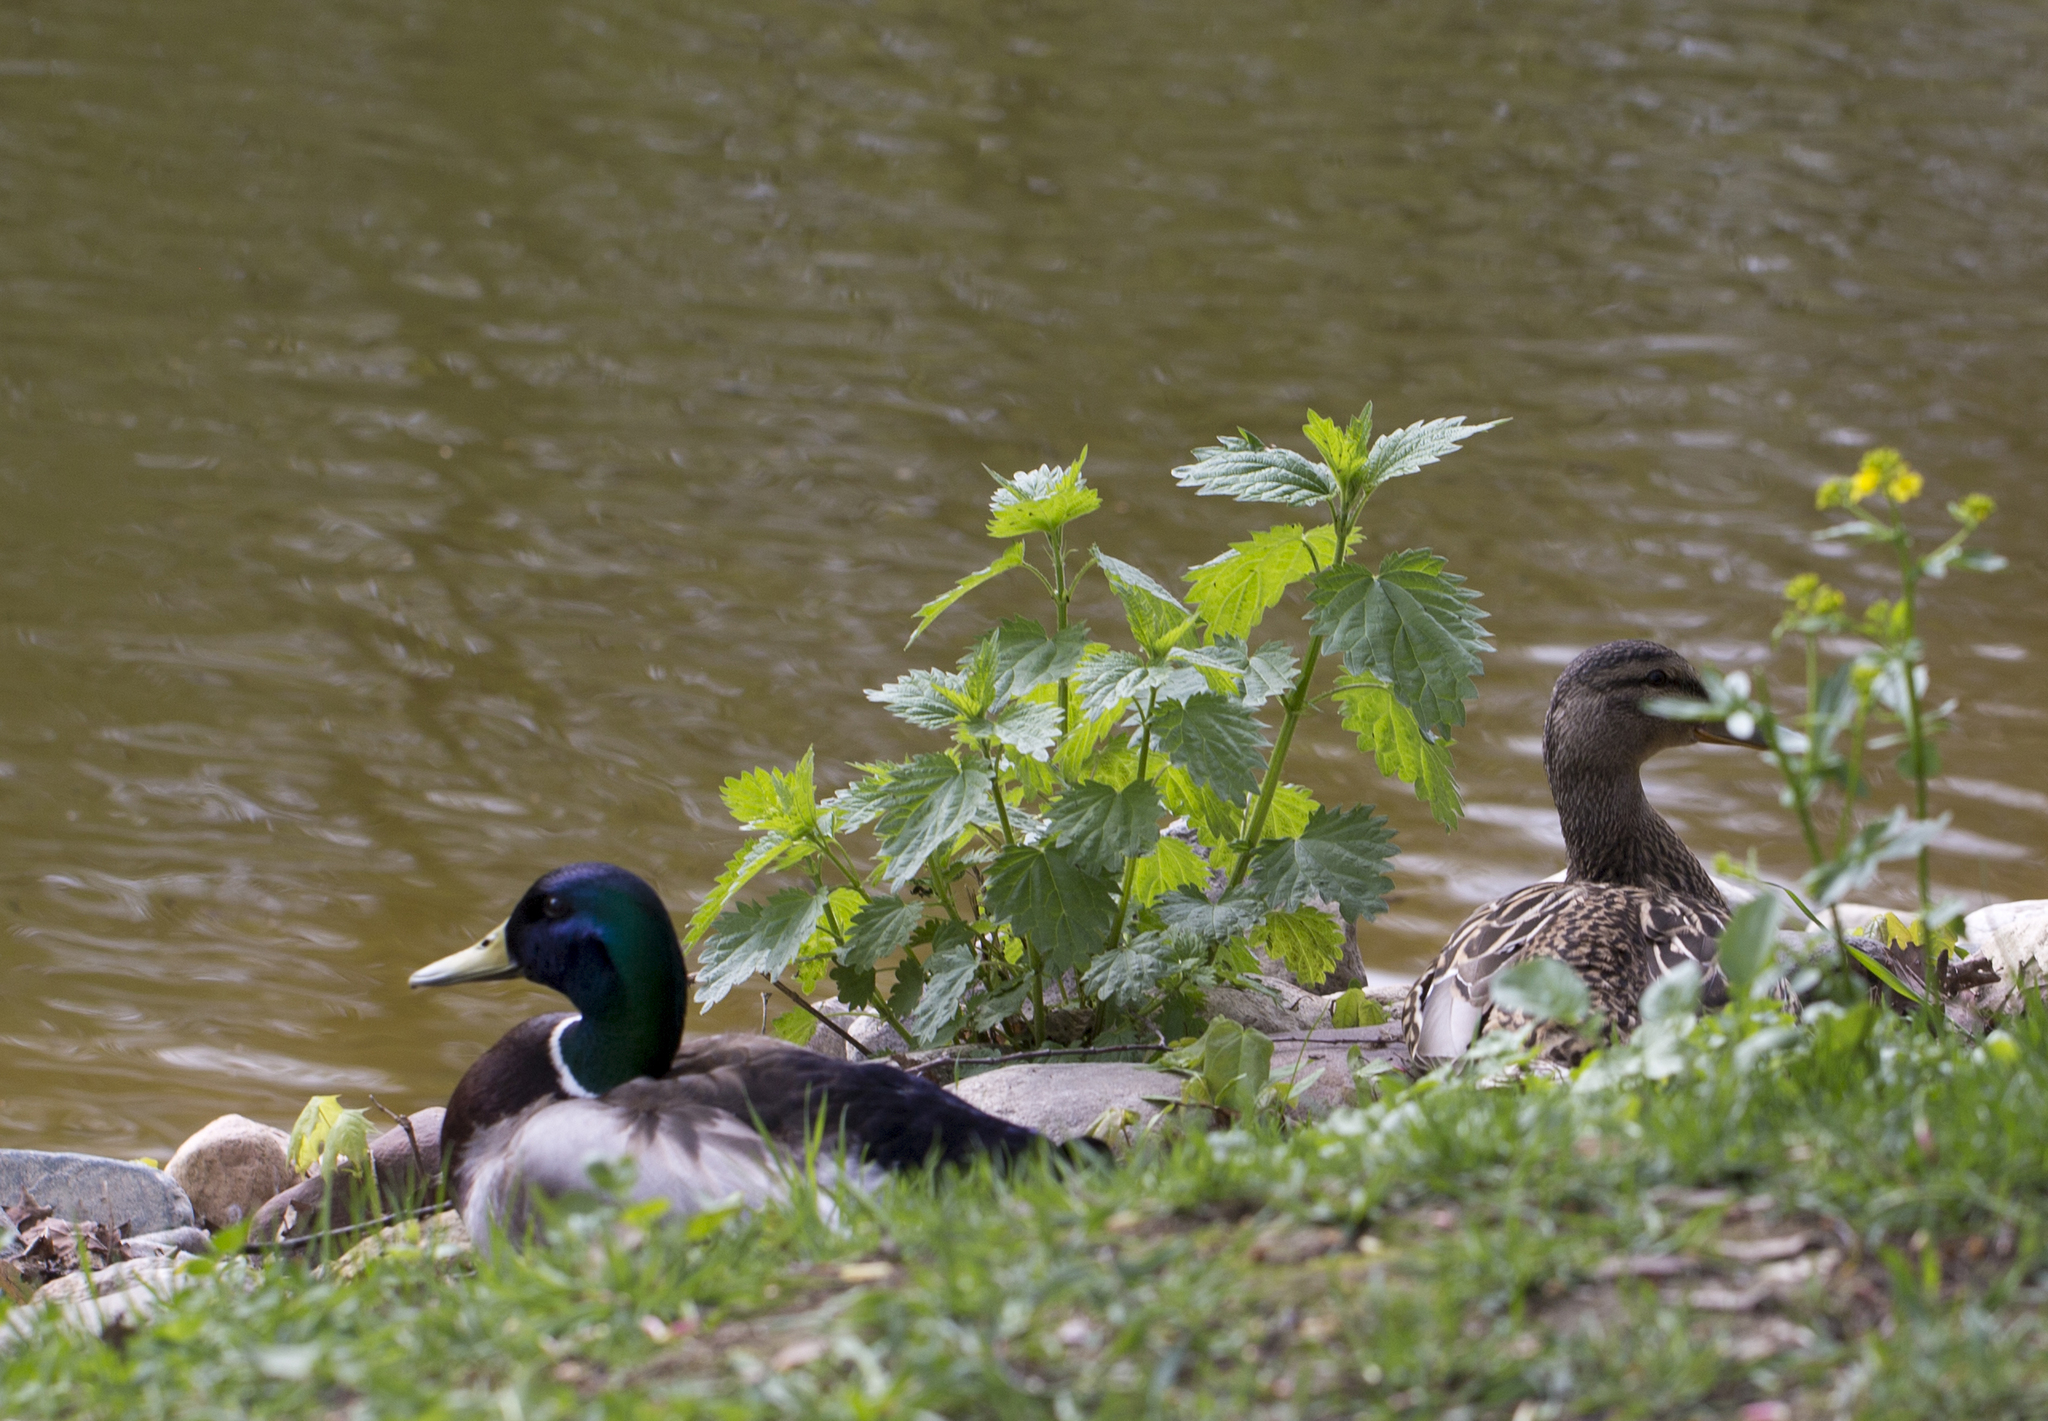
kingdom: Animalia
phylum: Chordata
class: Aves
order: Anseriformes
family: Anatidae
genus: Anas
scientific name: Anas platyrhynchos
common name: Mallard
